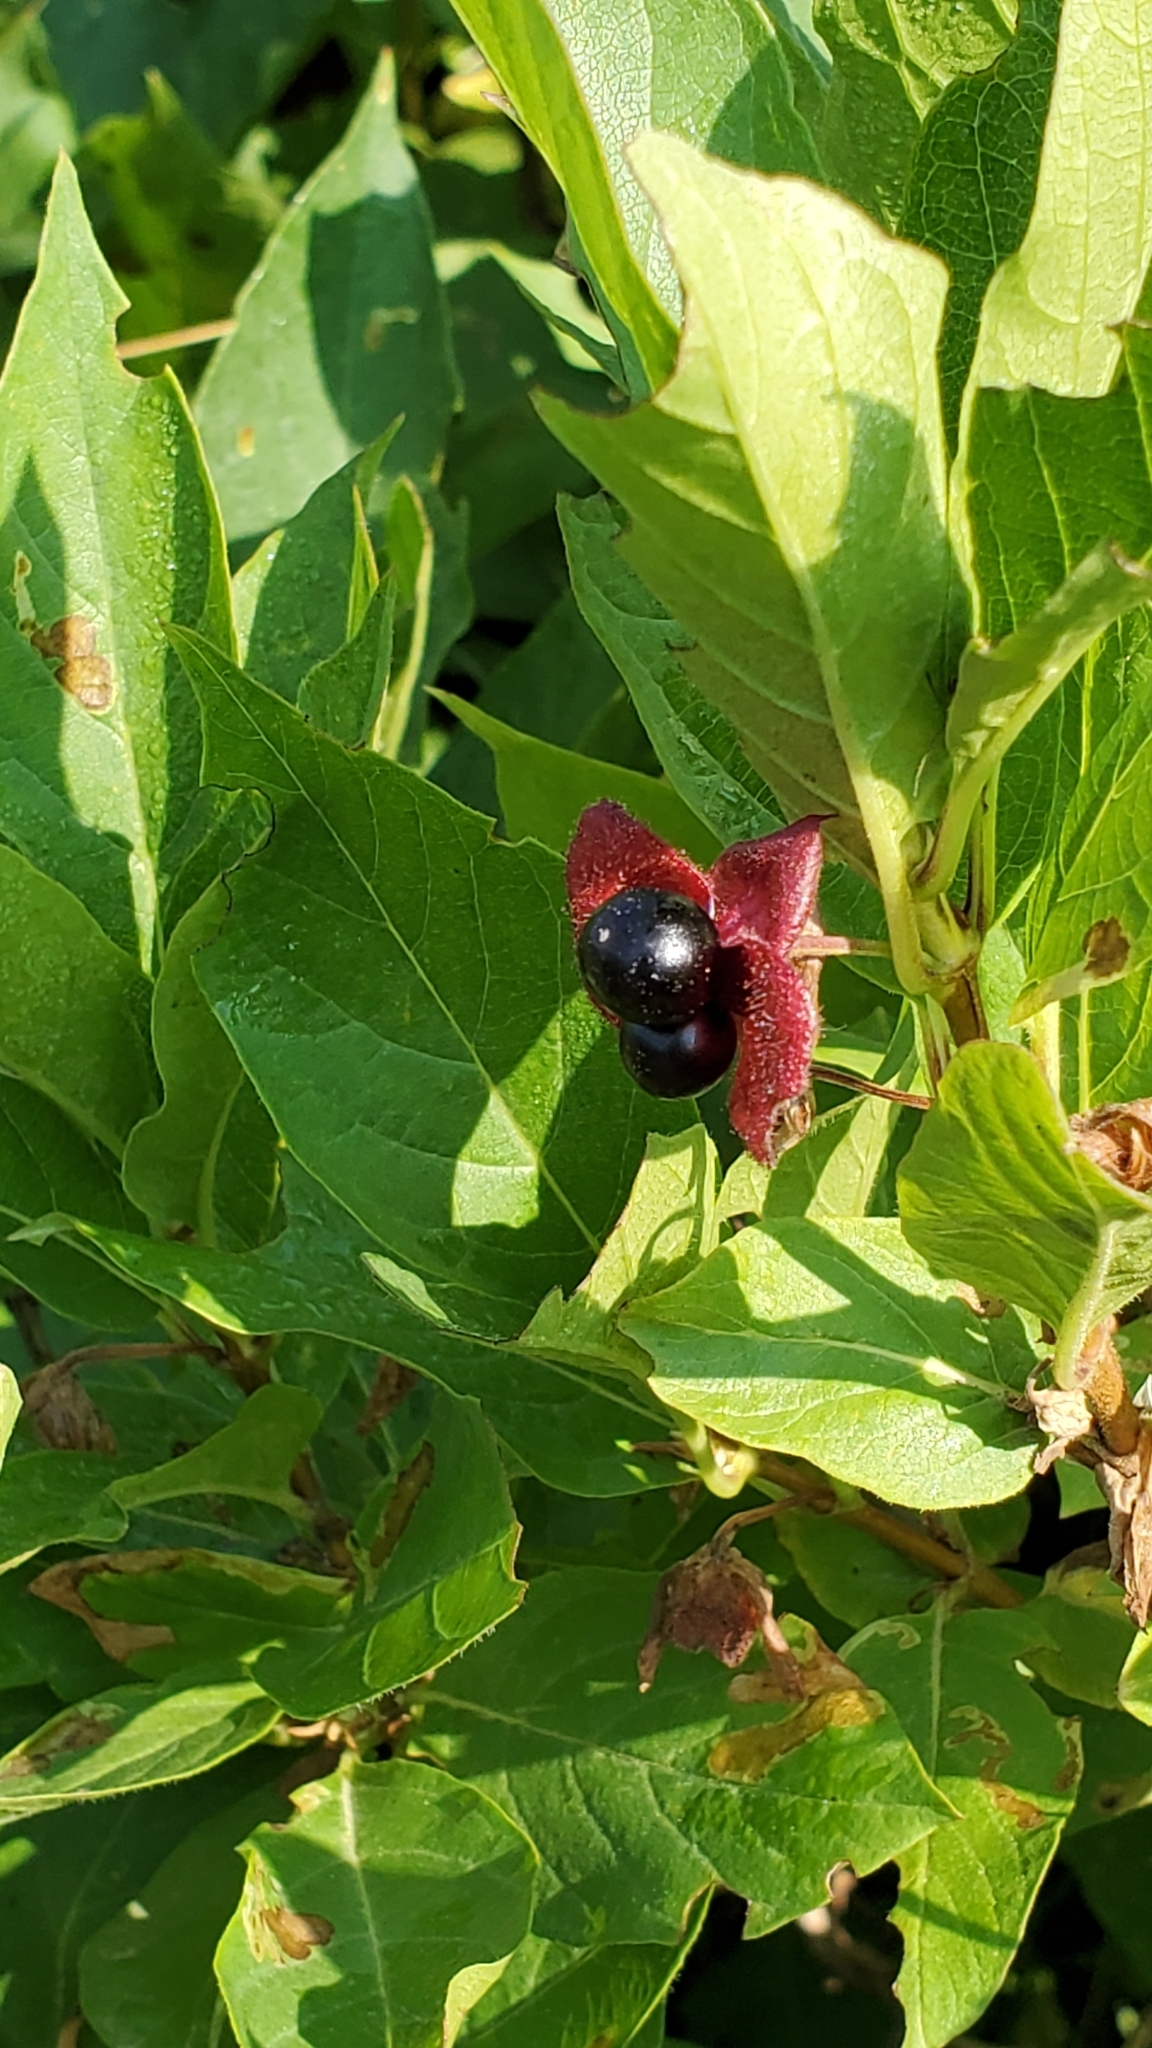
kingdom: Plantae
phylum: Tracheophyta
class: Magnoliopsida
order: Dipsacales
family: Caprifoliaceae
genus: Lonicera
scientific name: Lonicera involucrata
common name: Californian honeysuckle
